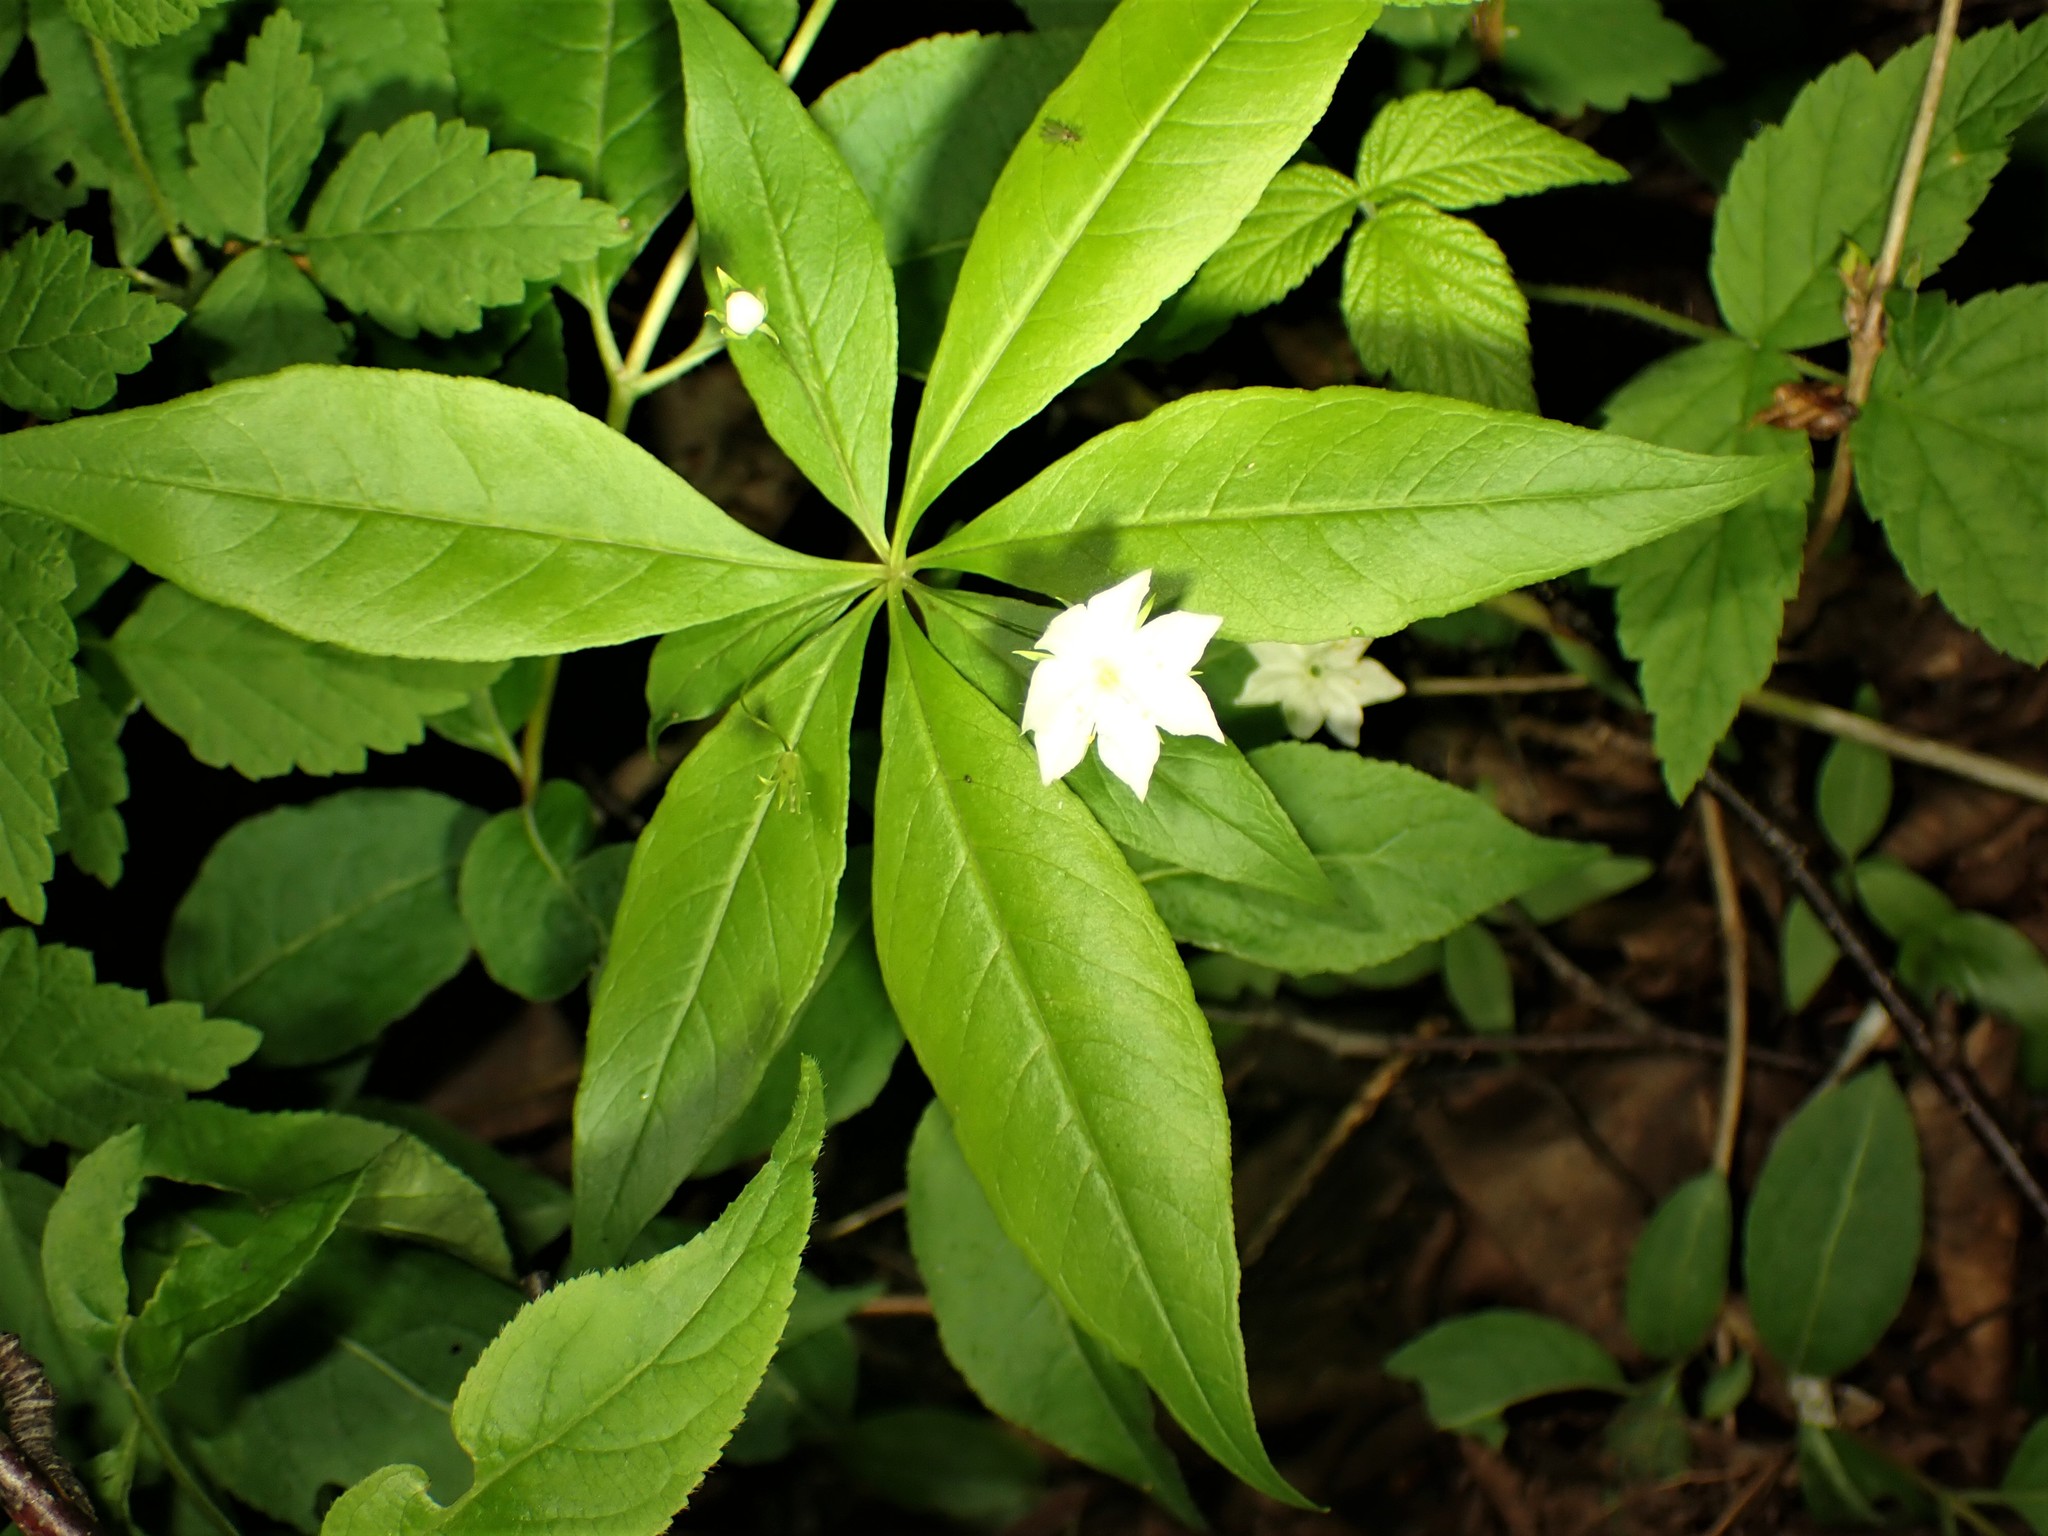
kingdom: Plantae
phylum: Tracheophyta
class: Magnoliopsida
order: Ericales
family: Primulaceae
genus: Lysimachia
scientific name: Lysimachia borealis
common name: American starflower
